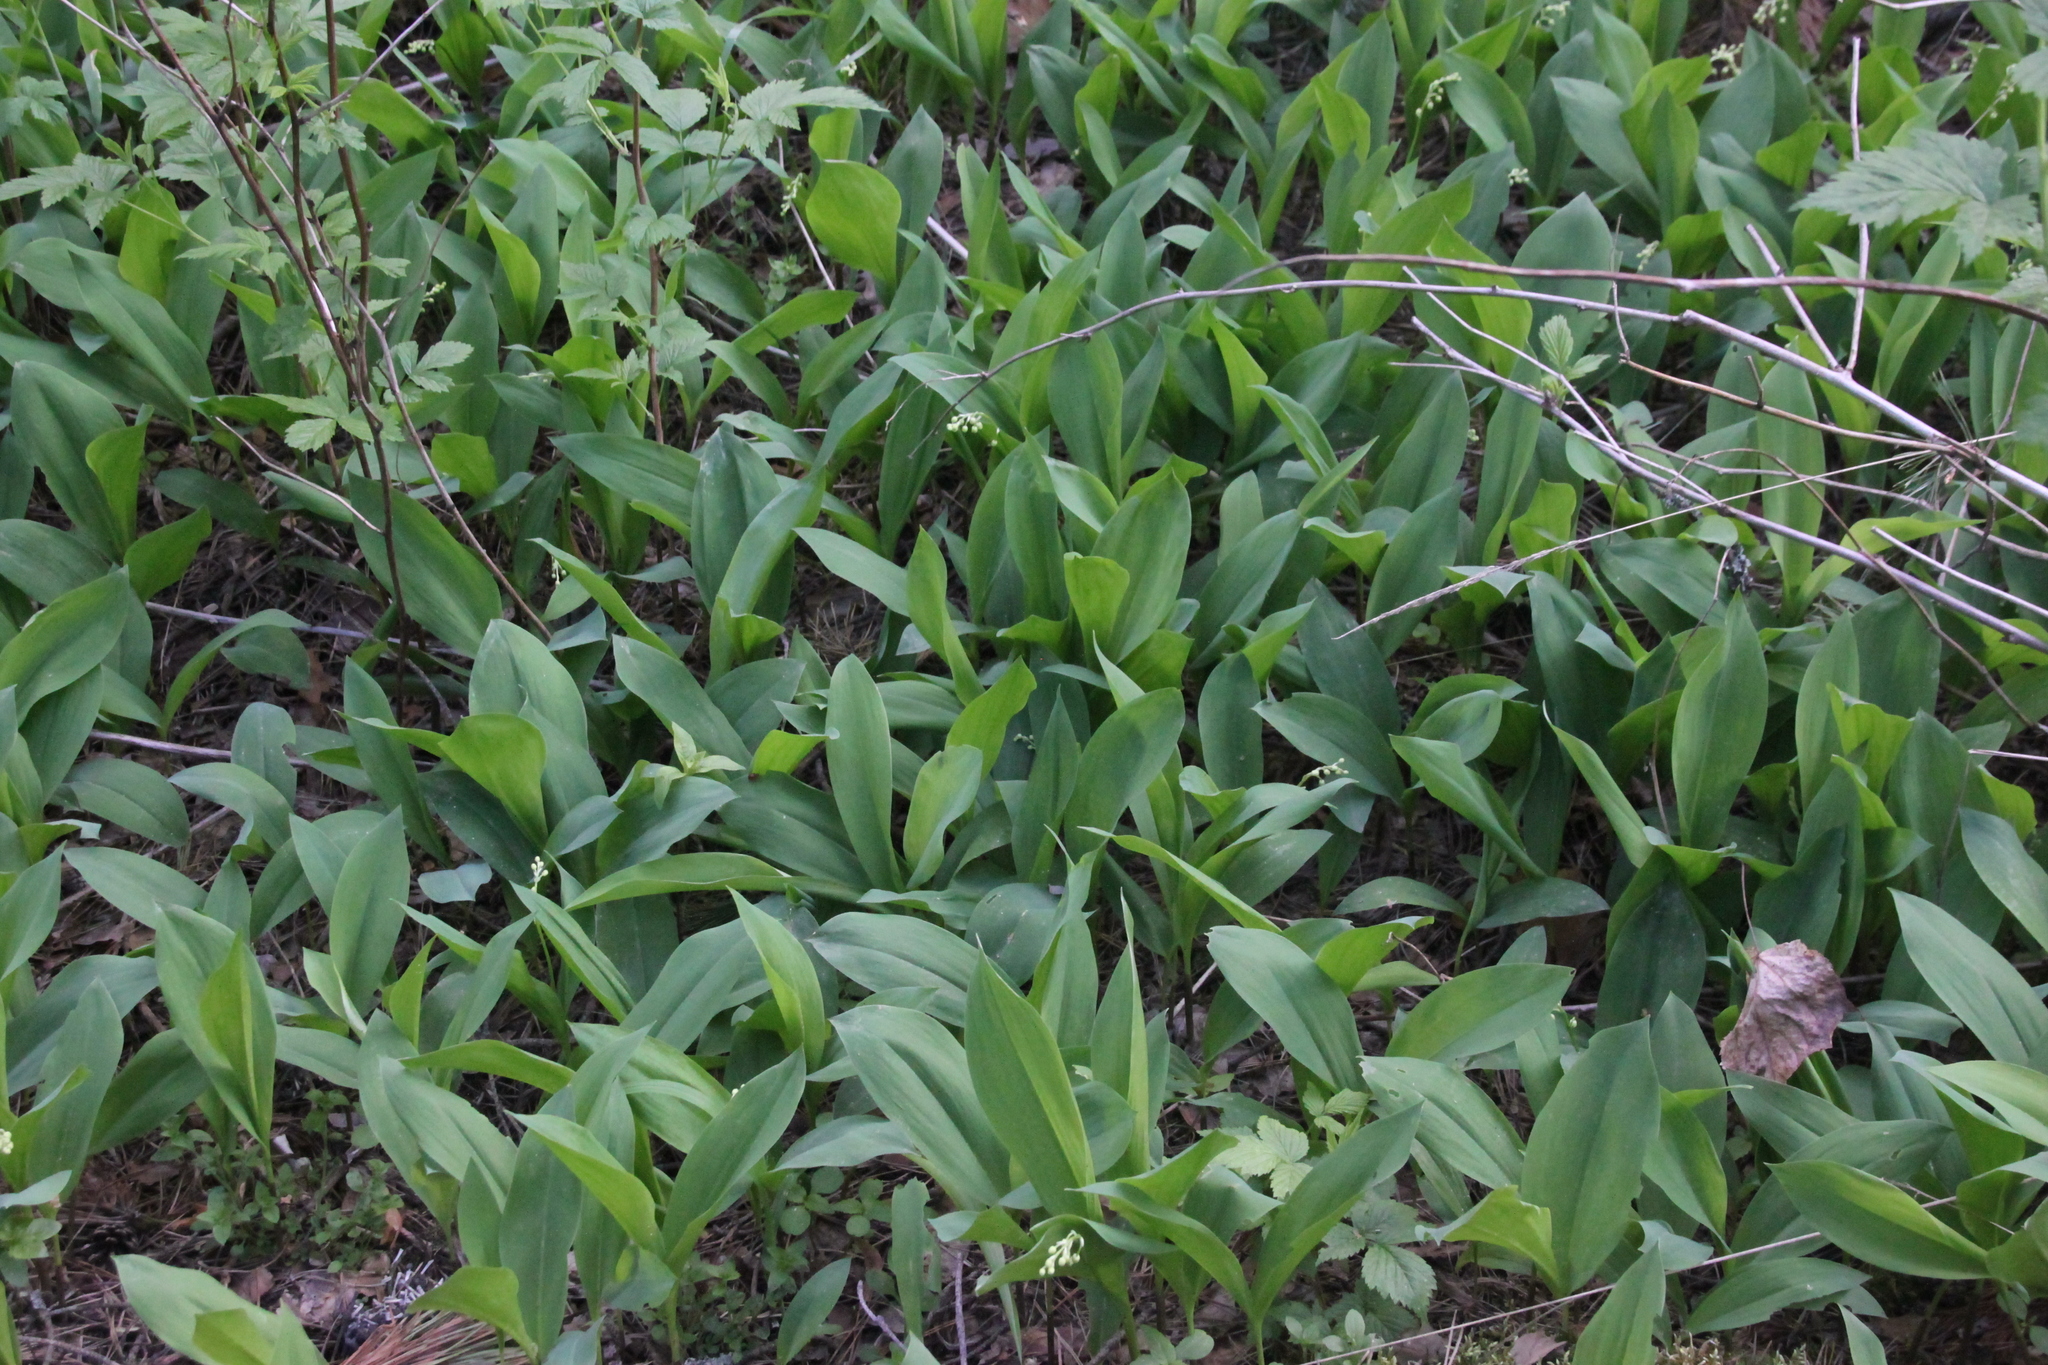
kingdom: Plantae
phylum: Tracheophyta
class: Liliopsida
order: Asparagales
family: Asparagaceae
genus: Convallaria
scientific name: Convallaria majalis
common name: Lily-of-the-valley
